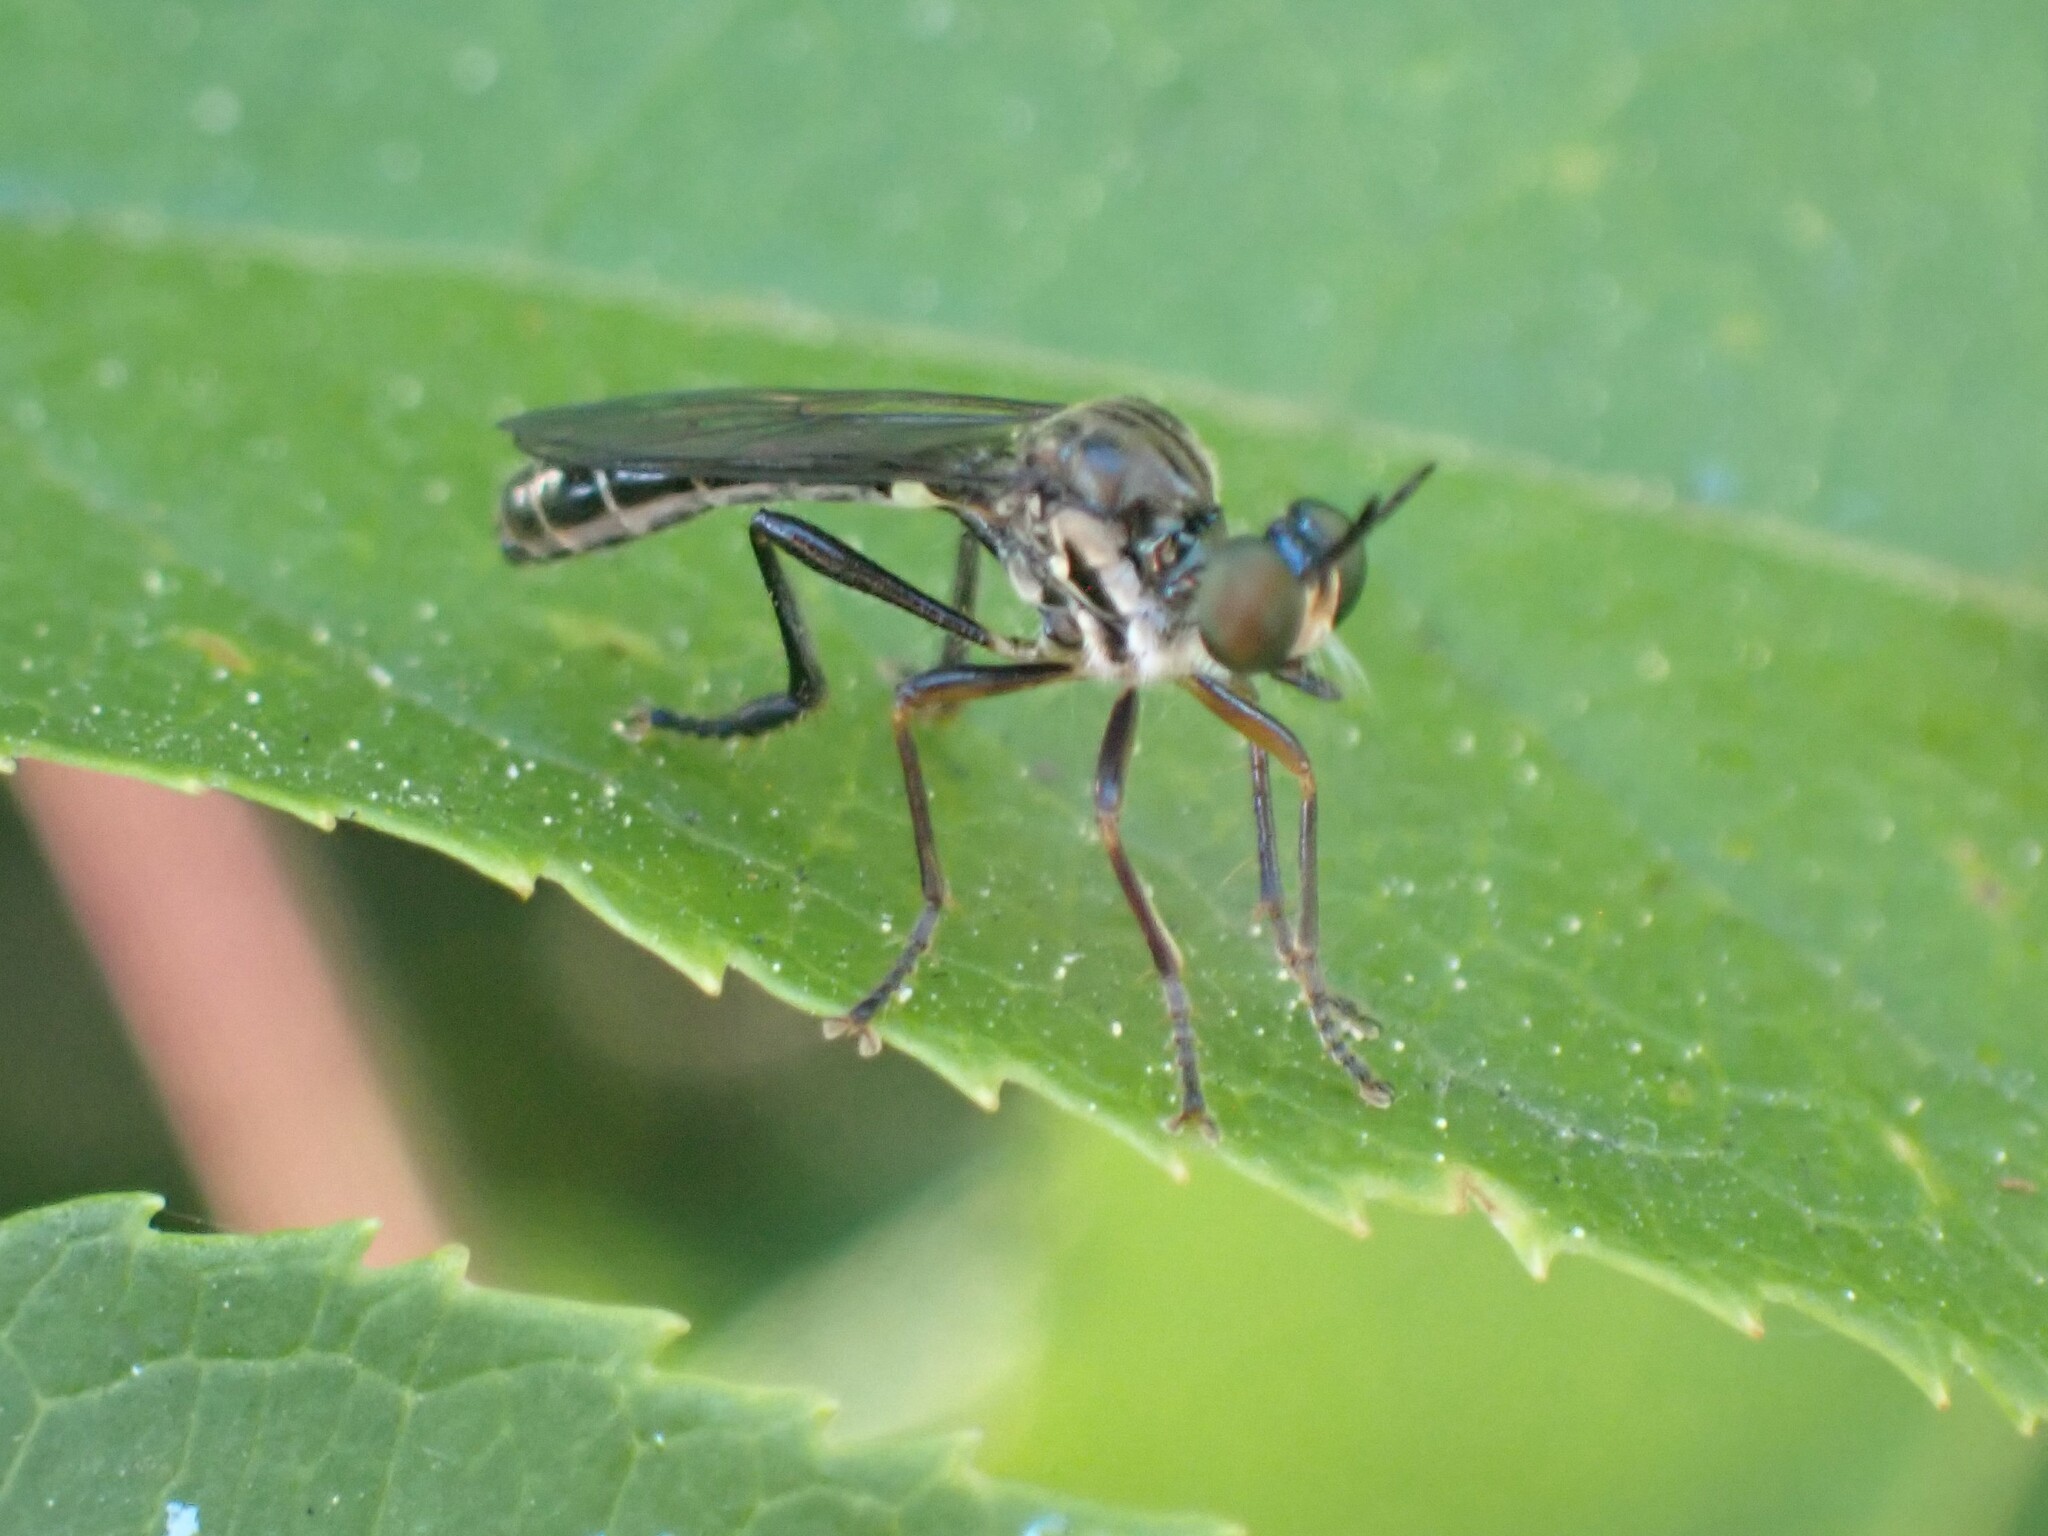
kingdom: Animalia
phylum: Arthropoda
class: Insecta
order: Diptera
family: Asilidae
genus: Dioctria
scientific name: Dioctria hyalipennis
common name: Stripe-legged robberfly
